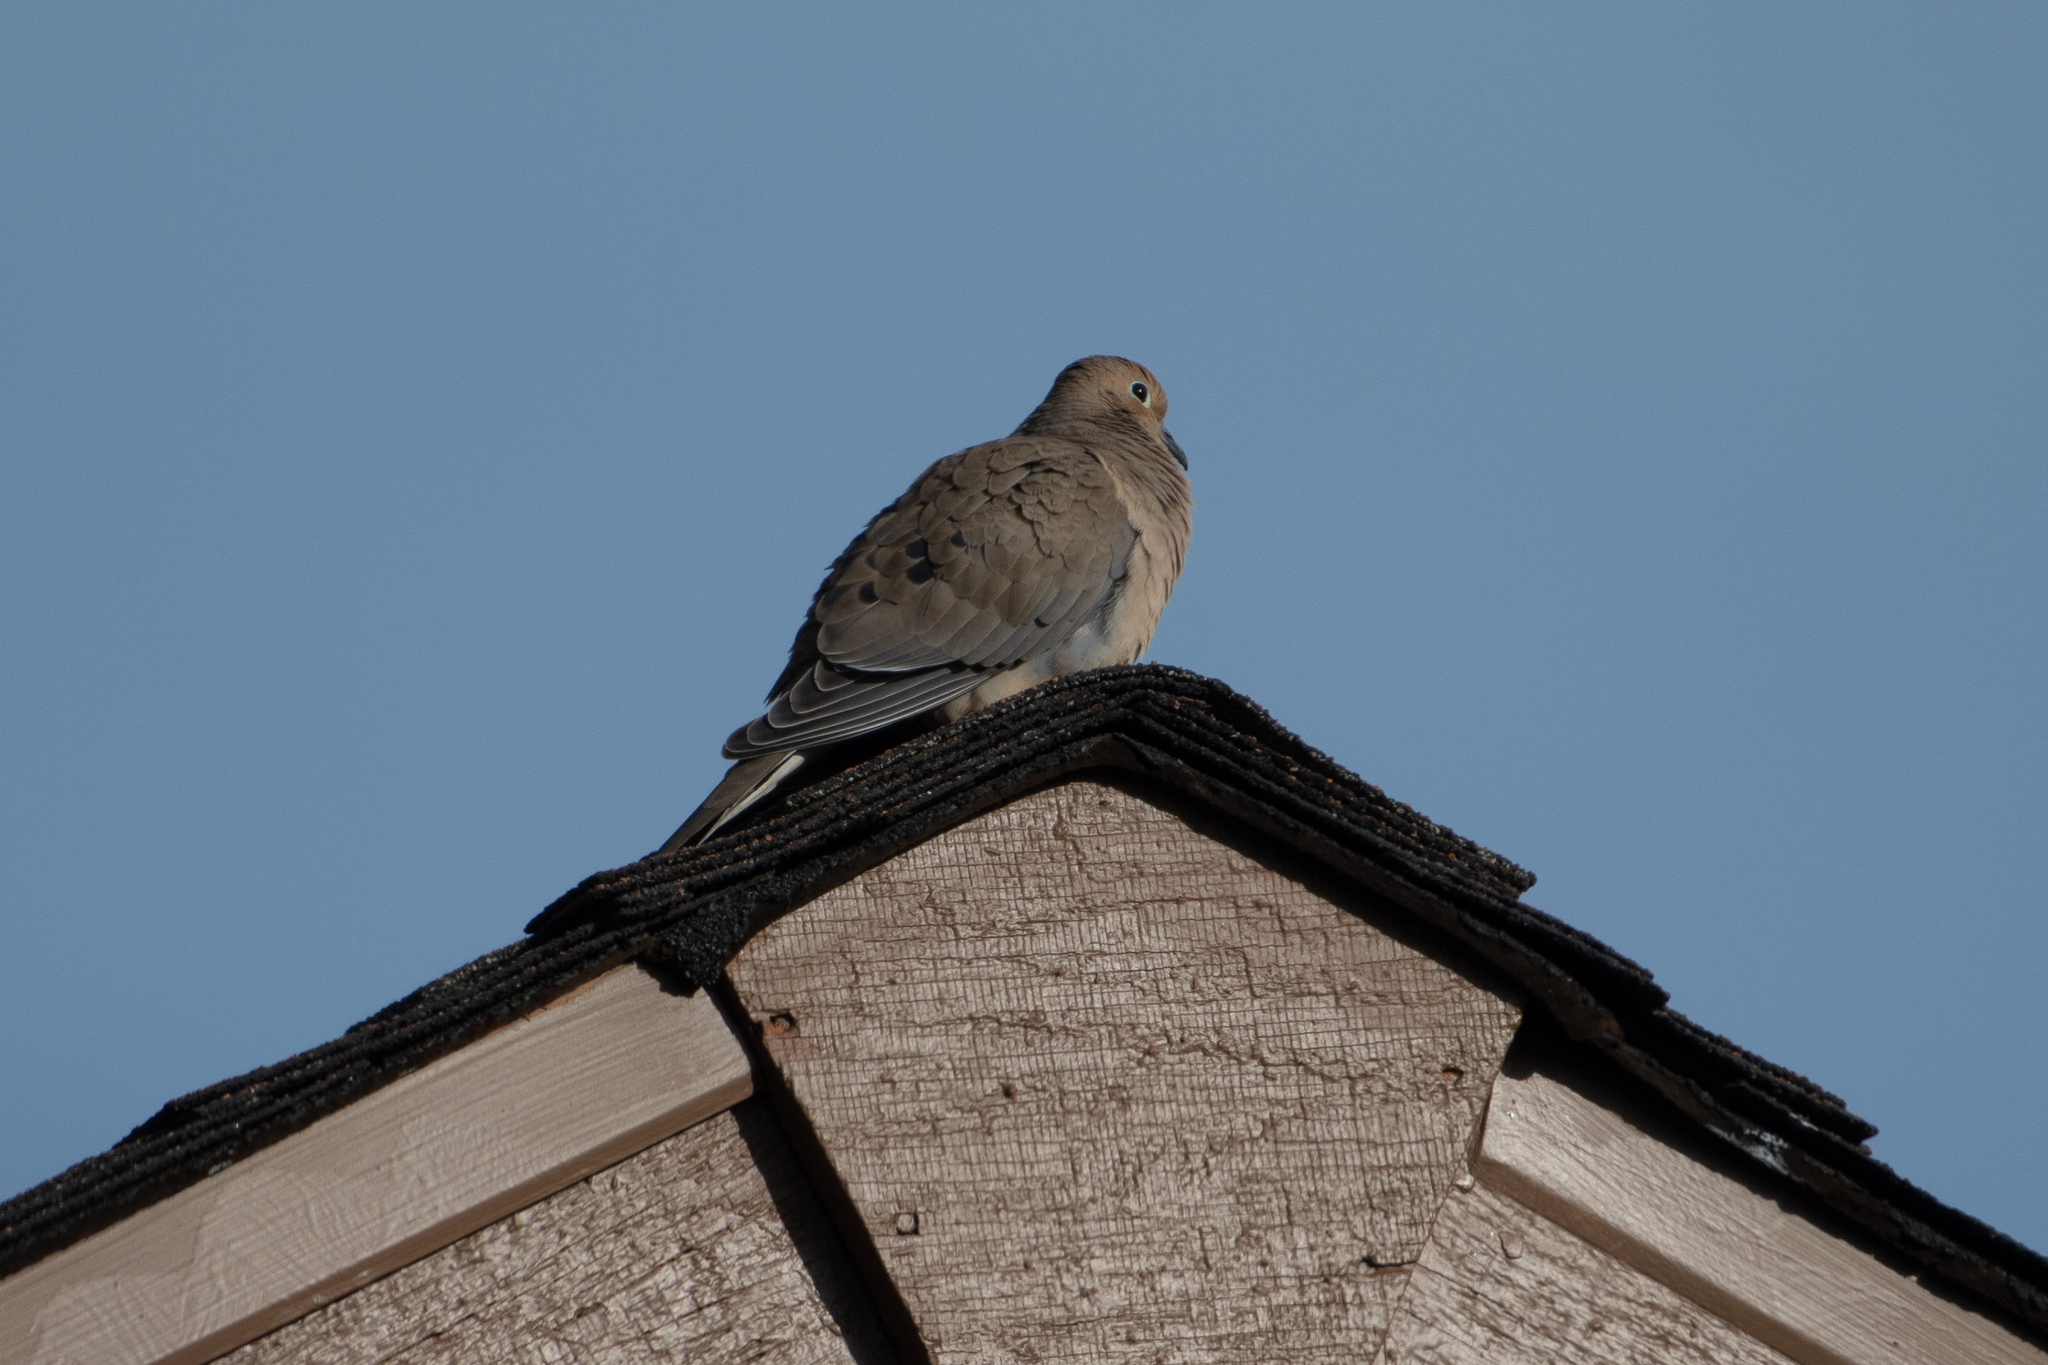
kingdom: Animalia
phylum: Chordata
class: Aves
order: Columbiformes
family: Columbidae
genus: Zenaida
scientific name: Zenaida macroura
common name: Mourning dove
